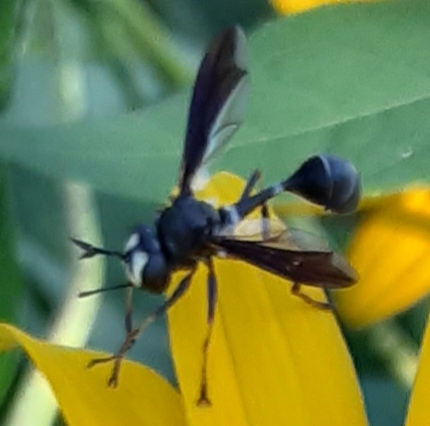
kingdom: Animalia
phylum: Arthropoda
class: Insecta
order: Diptera
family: Conopidae
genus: Physocephala
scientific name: Physocephala tibialis
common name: Common eastern physocephala
